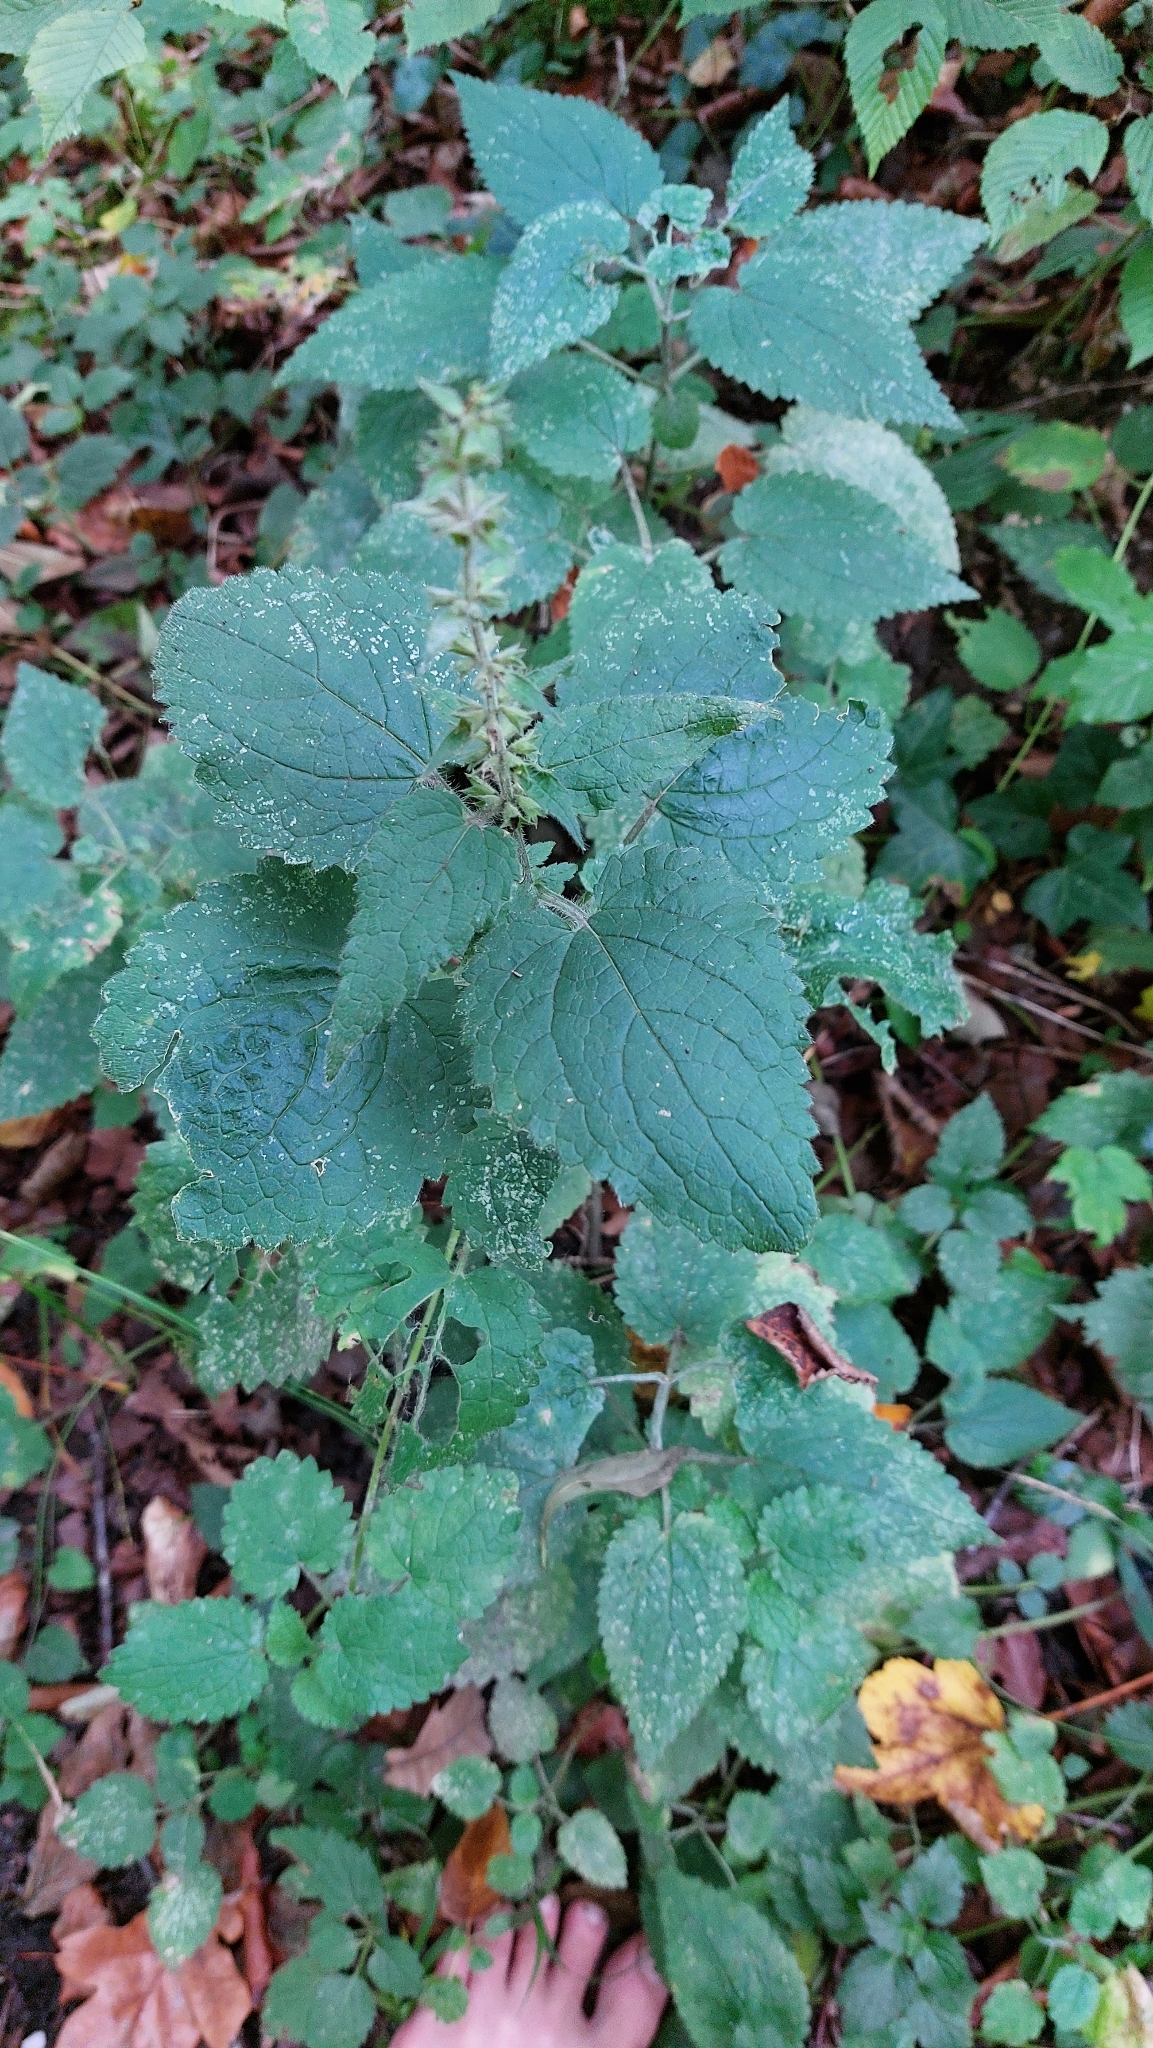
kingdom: Plantae
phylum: Tracheophyta
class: Magnoliopsida
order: Lamiales
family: Lamiaceae
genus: Stachys
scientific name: Stachys sylvatica
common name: Hedge woundwort
